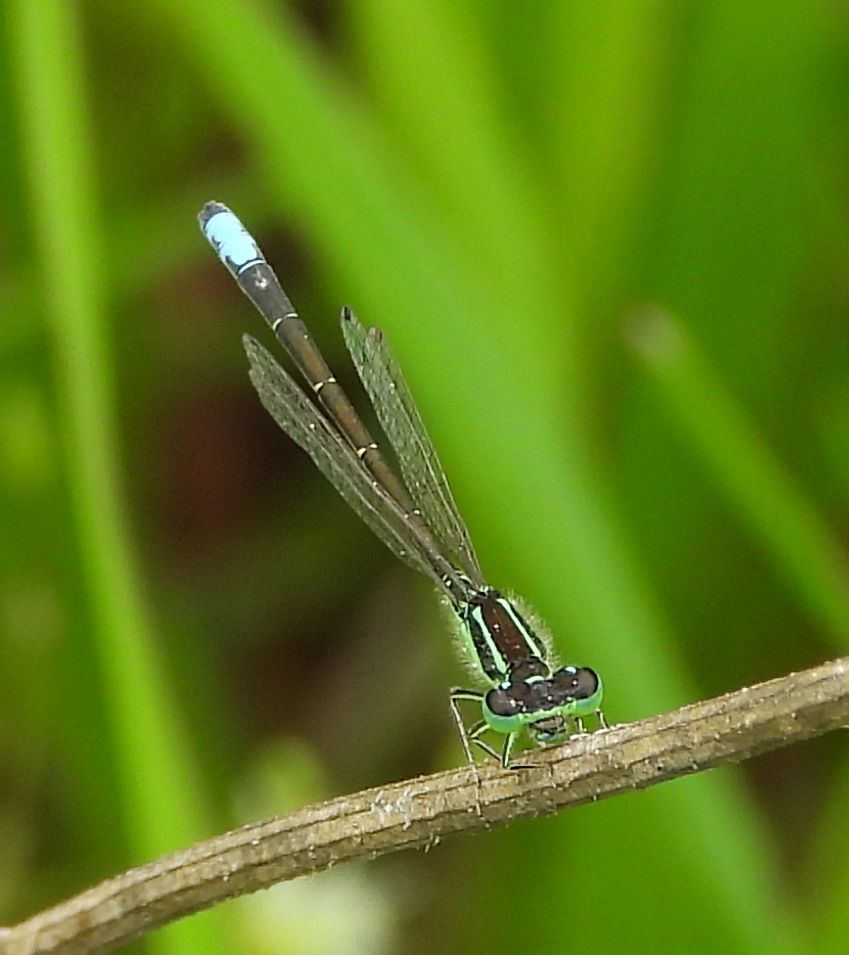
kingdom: Animalia
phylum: Arthropoda
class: Insecta
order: Odonata
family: Coenagrionidae
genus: Ischnura
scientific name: Ischnura verticalis
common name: Eastern forktail
